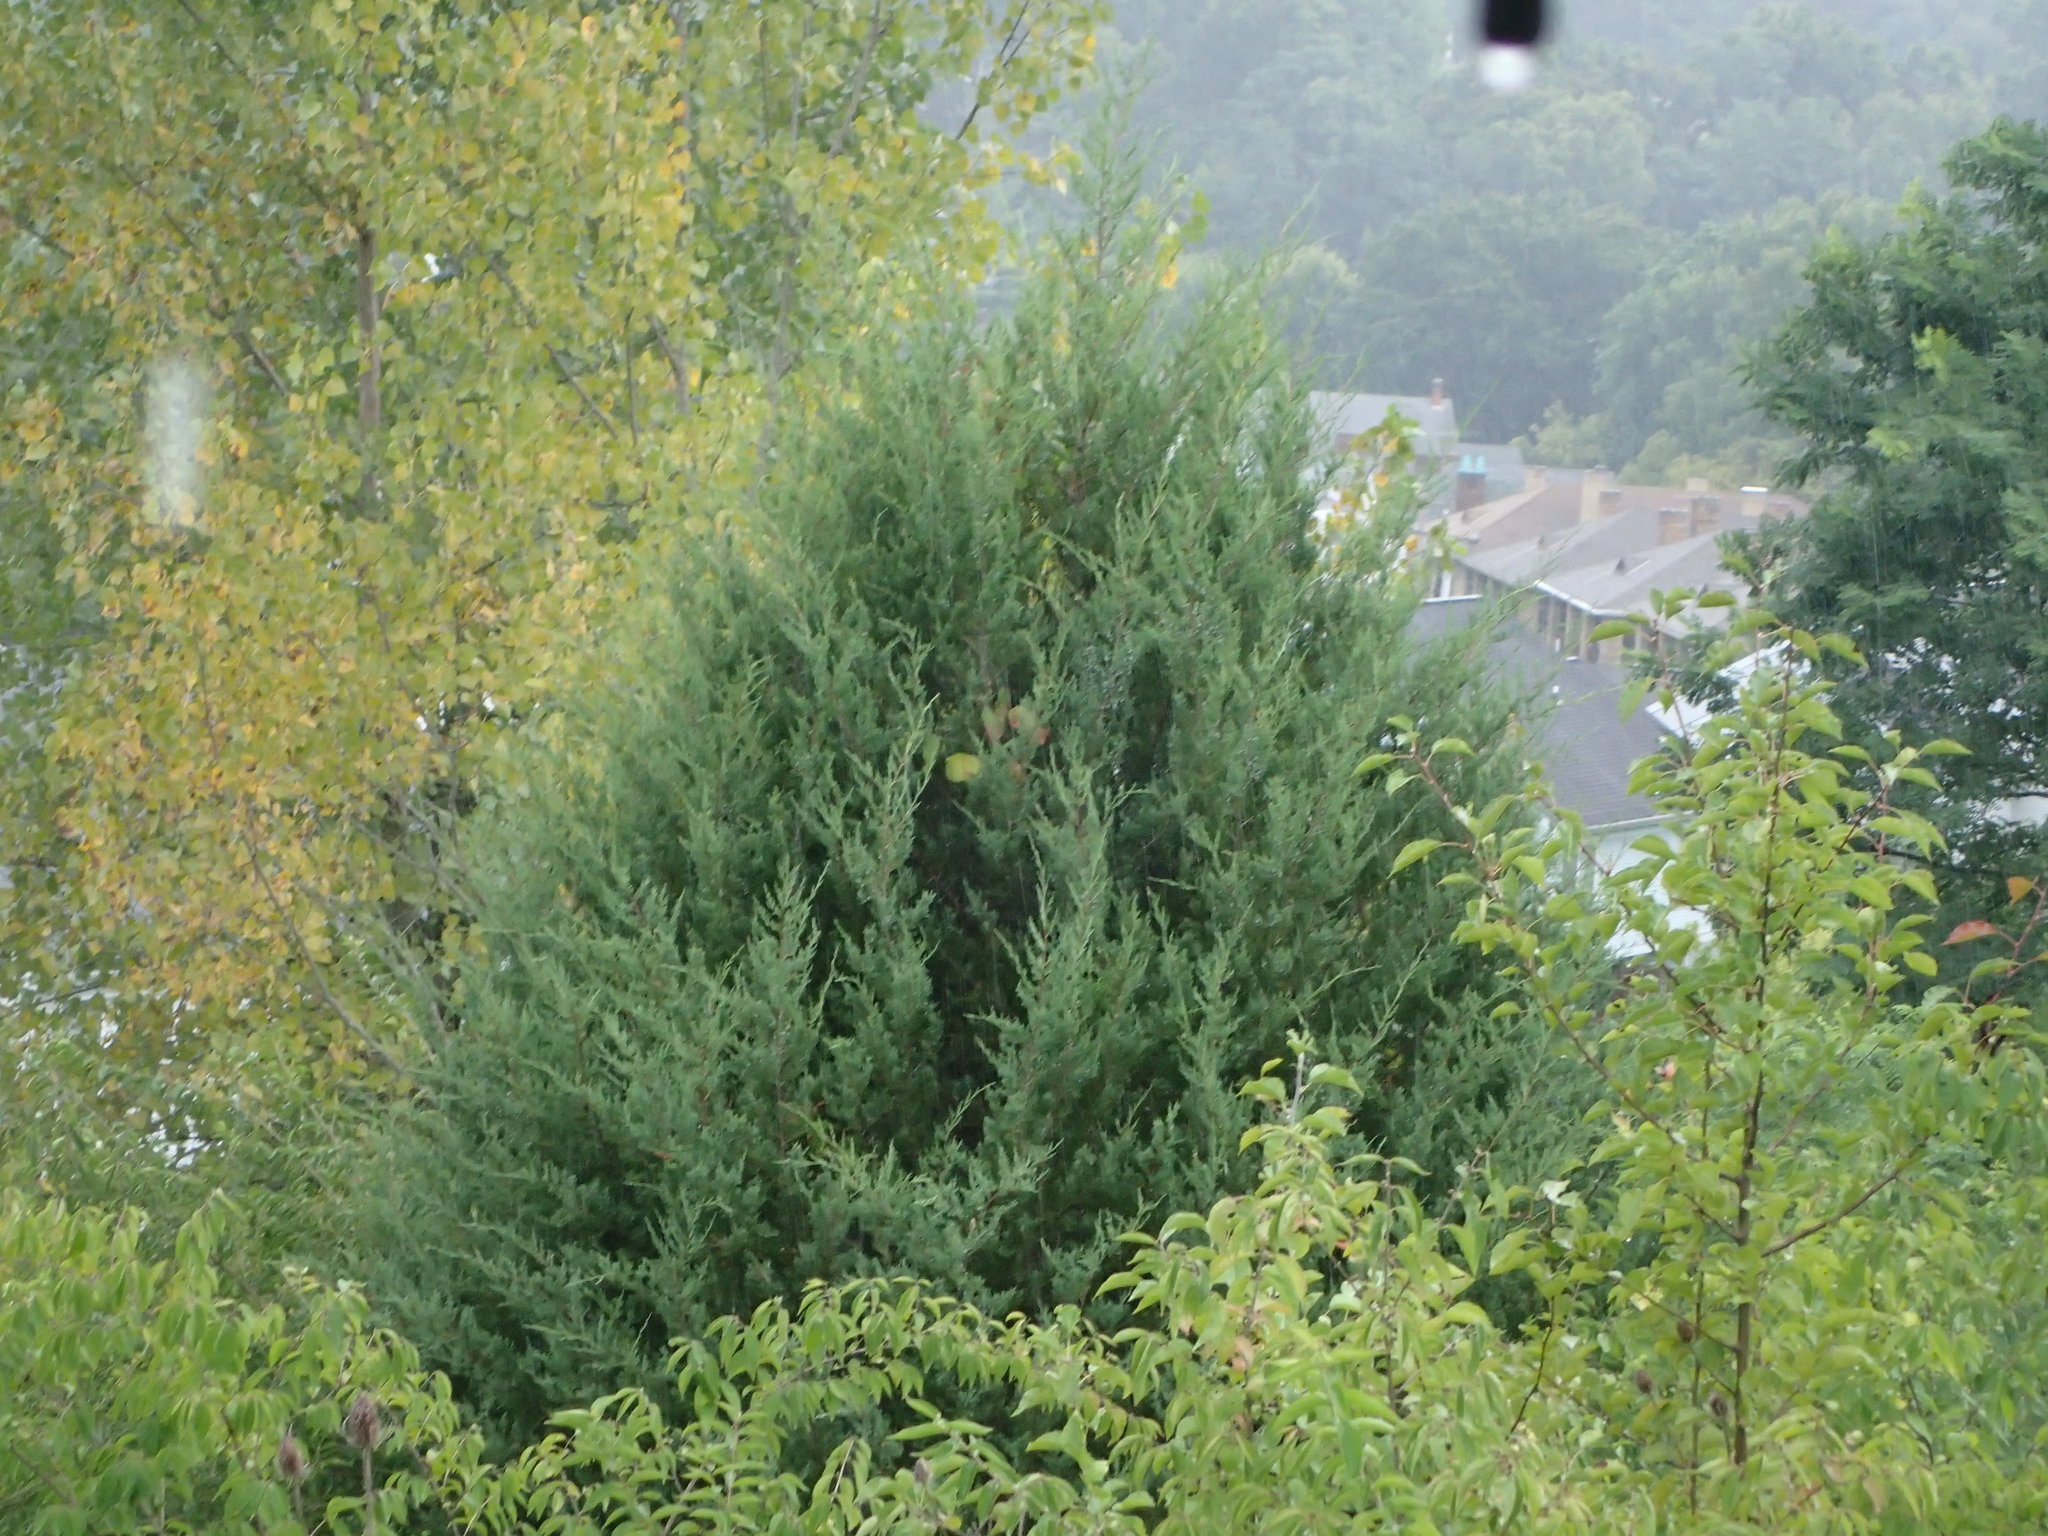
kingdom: Plantae
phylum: Tracheophyta
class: Pinopsida
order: Pinales
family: Cupressaceae
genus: Juniperus
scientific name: Juniperus virginiana
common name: Red juniper
